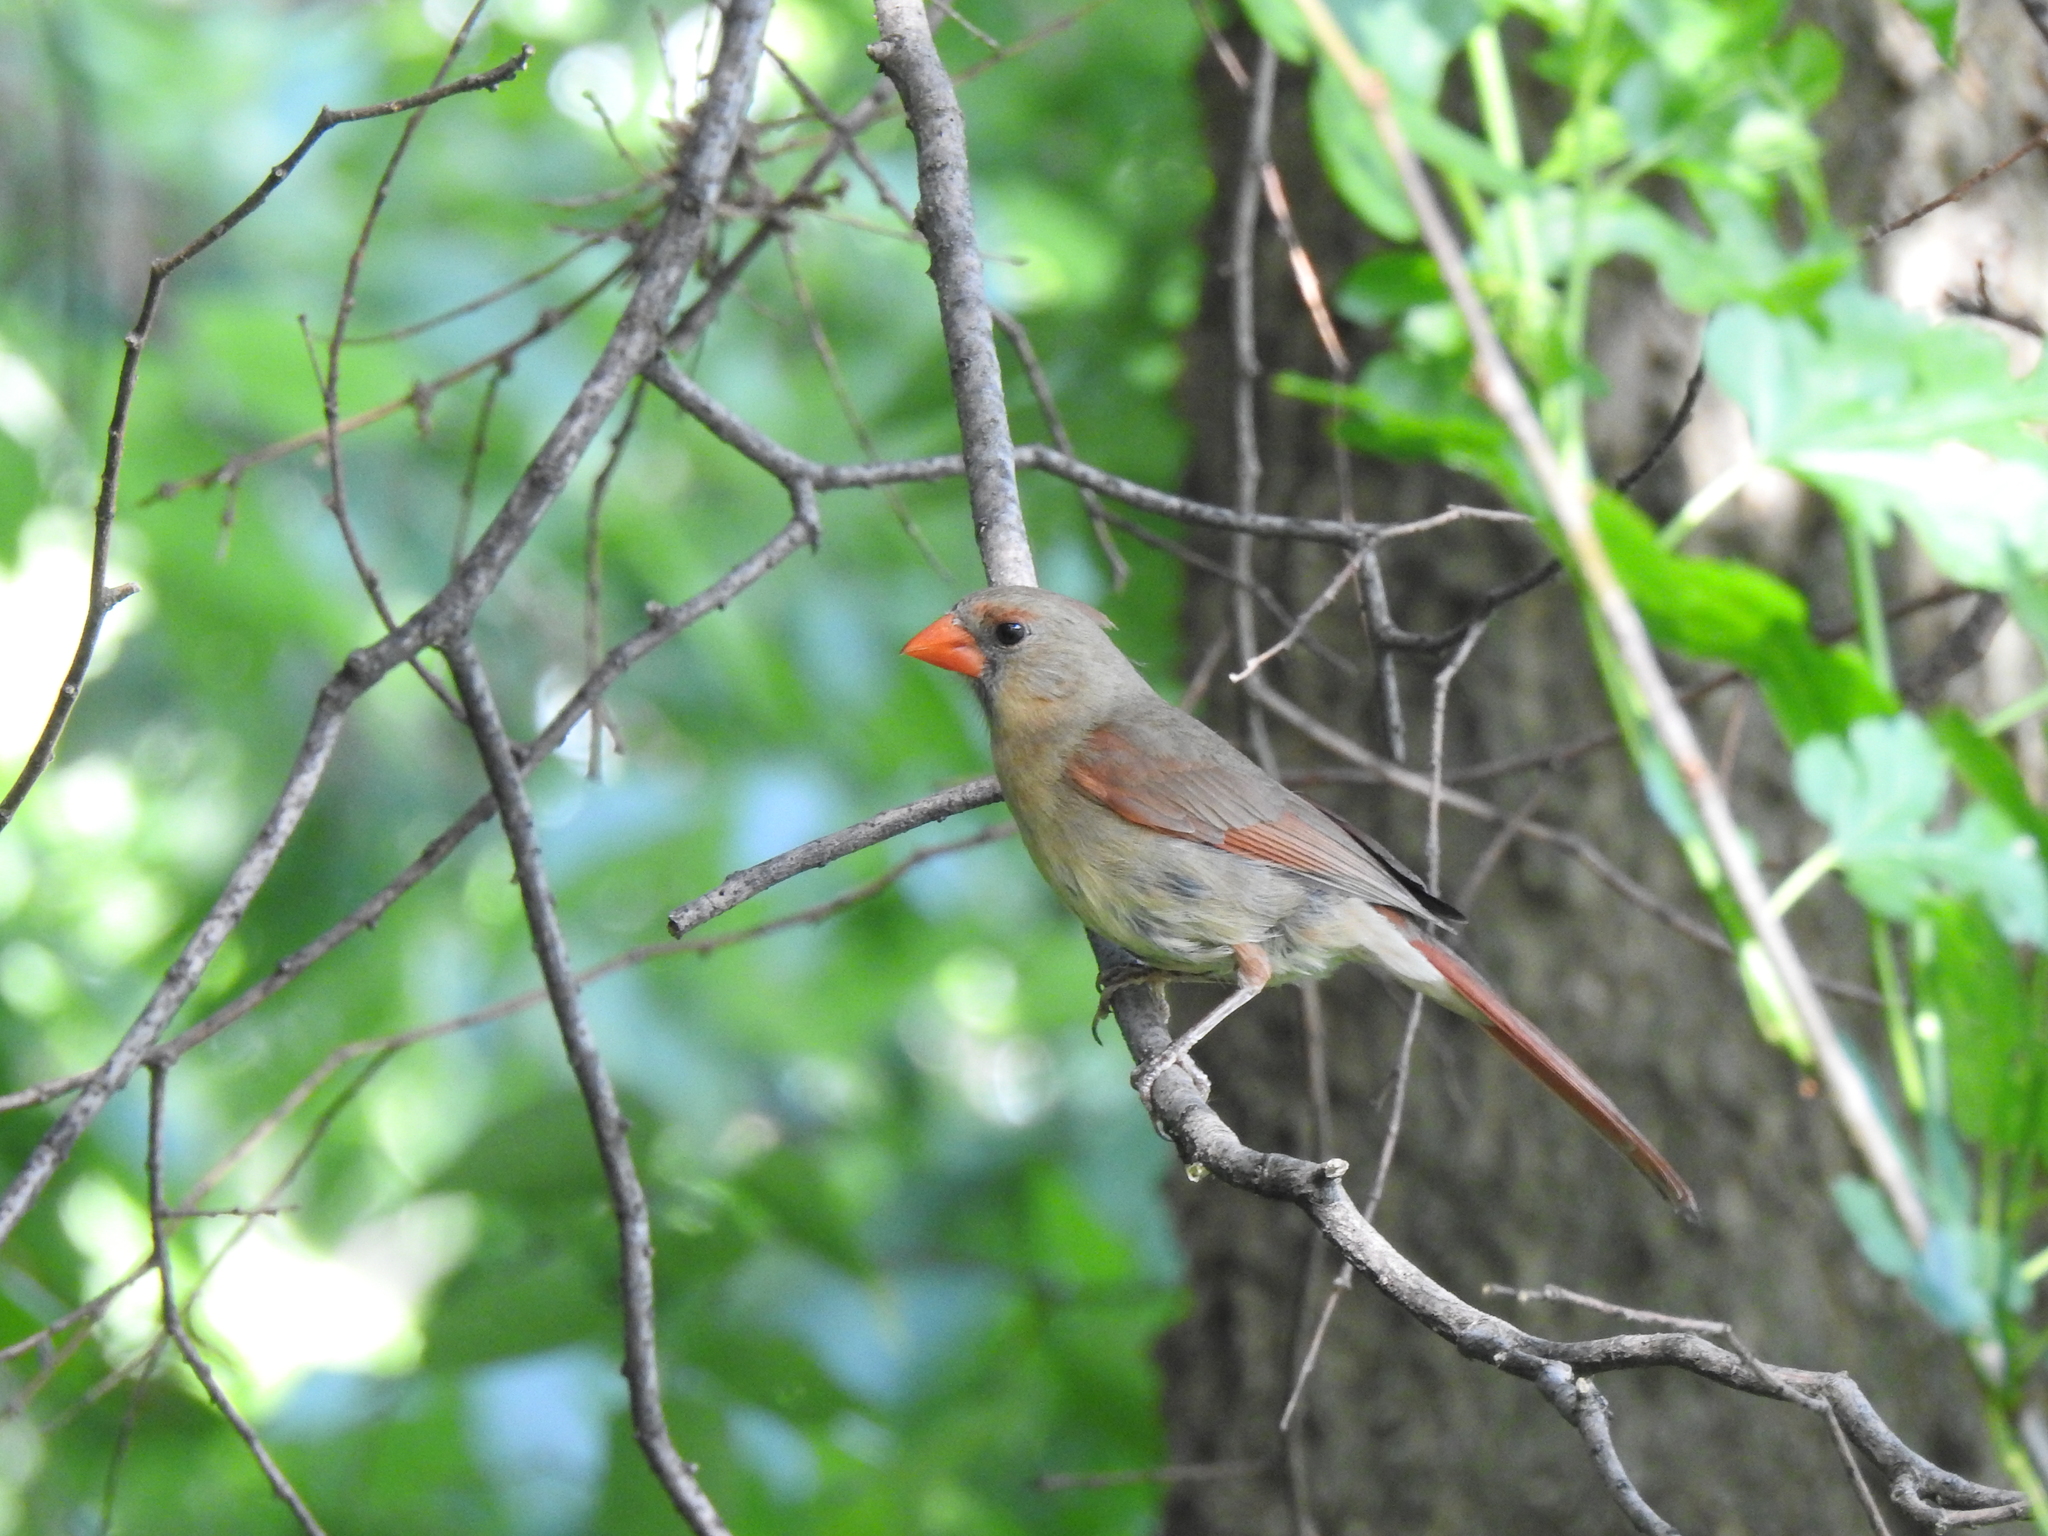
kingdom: Animalia
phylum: Chordata
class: Aves
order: Passeriformes
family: Cardinalidae
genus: Cardinalis
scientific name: Cardinalis cardinalis
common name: Northern cardinal
